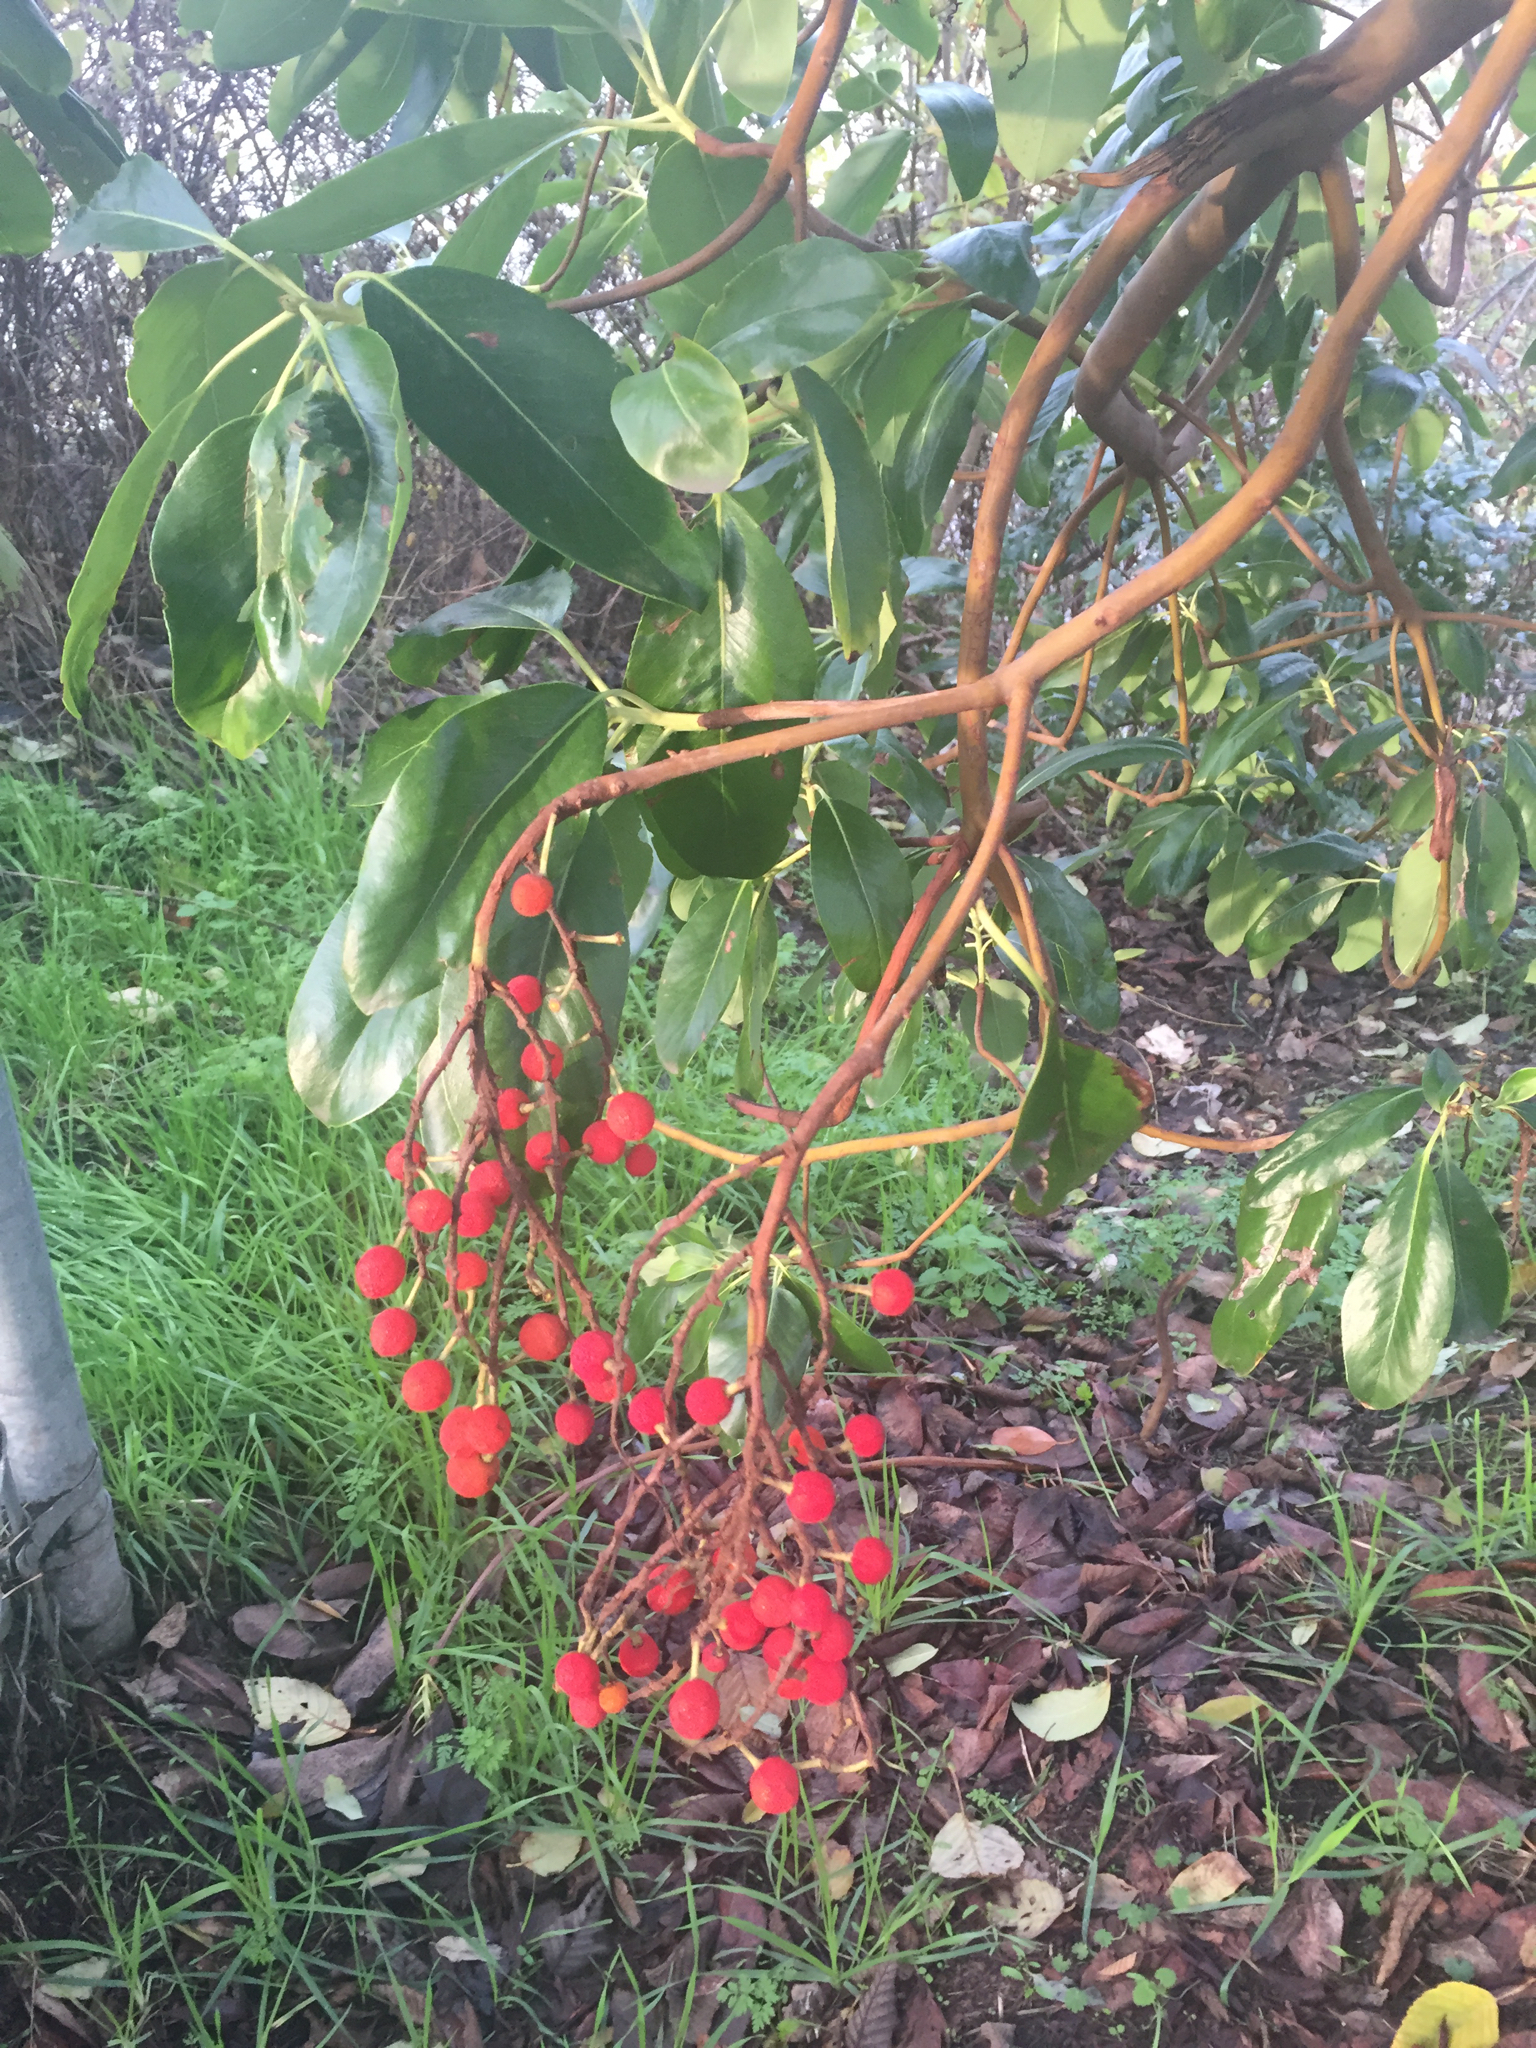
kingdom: Plantae
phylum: Tracheophyta
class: Magnoliopsida
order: Ericales
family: Ericaceae
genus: Arbutus
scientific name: Arbutus menziesii
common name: Pacific madrone
